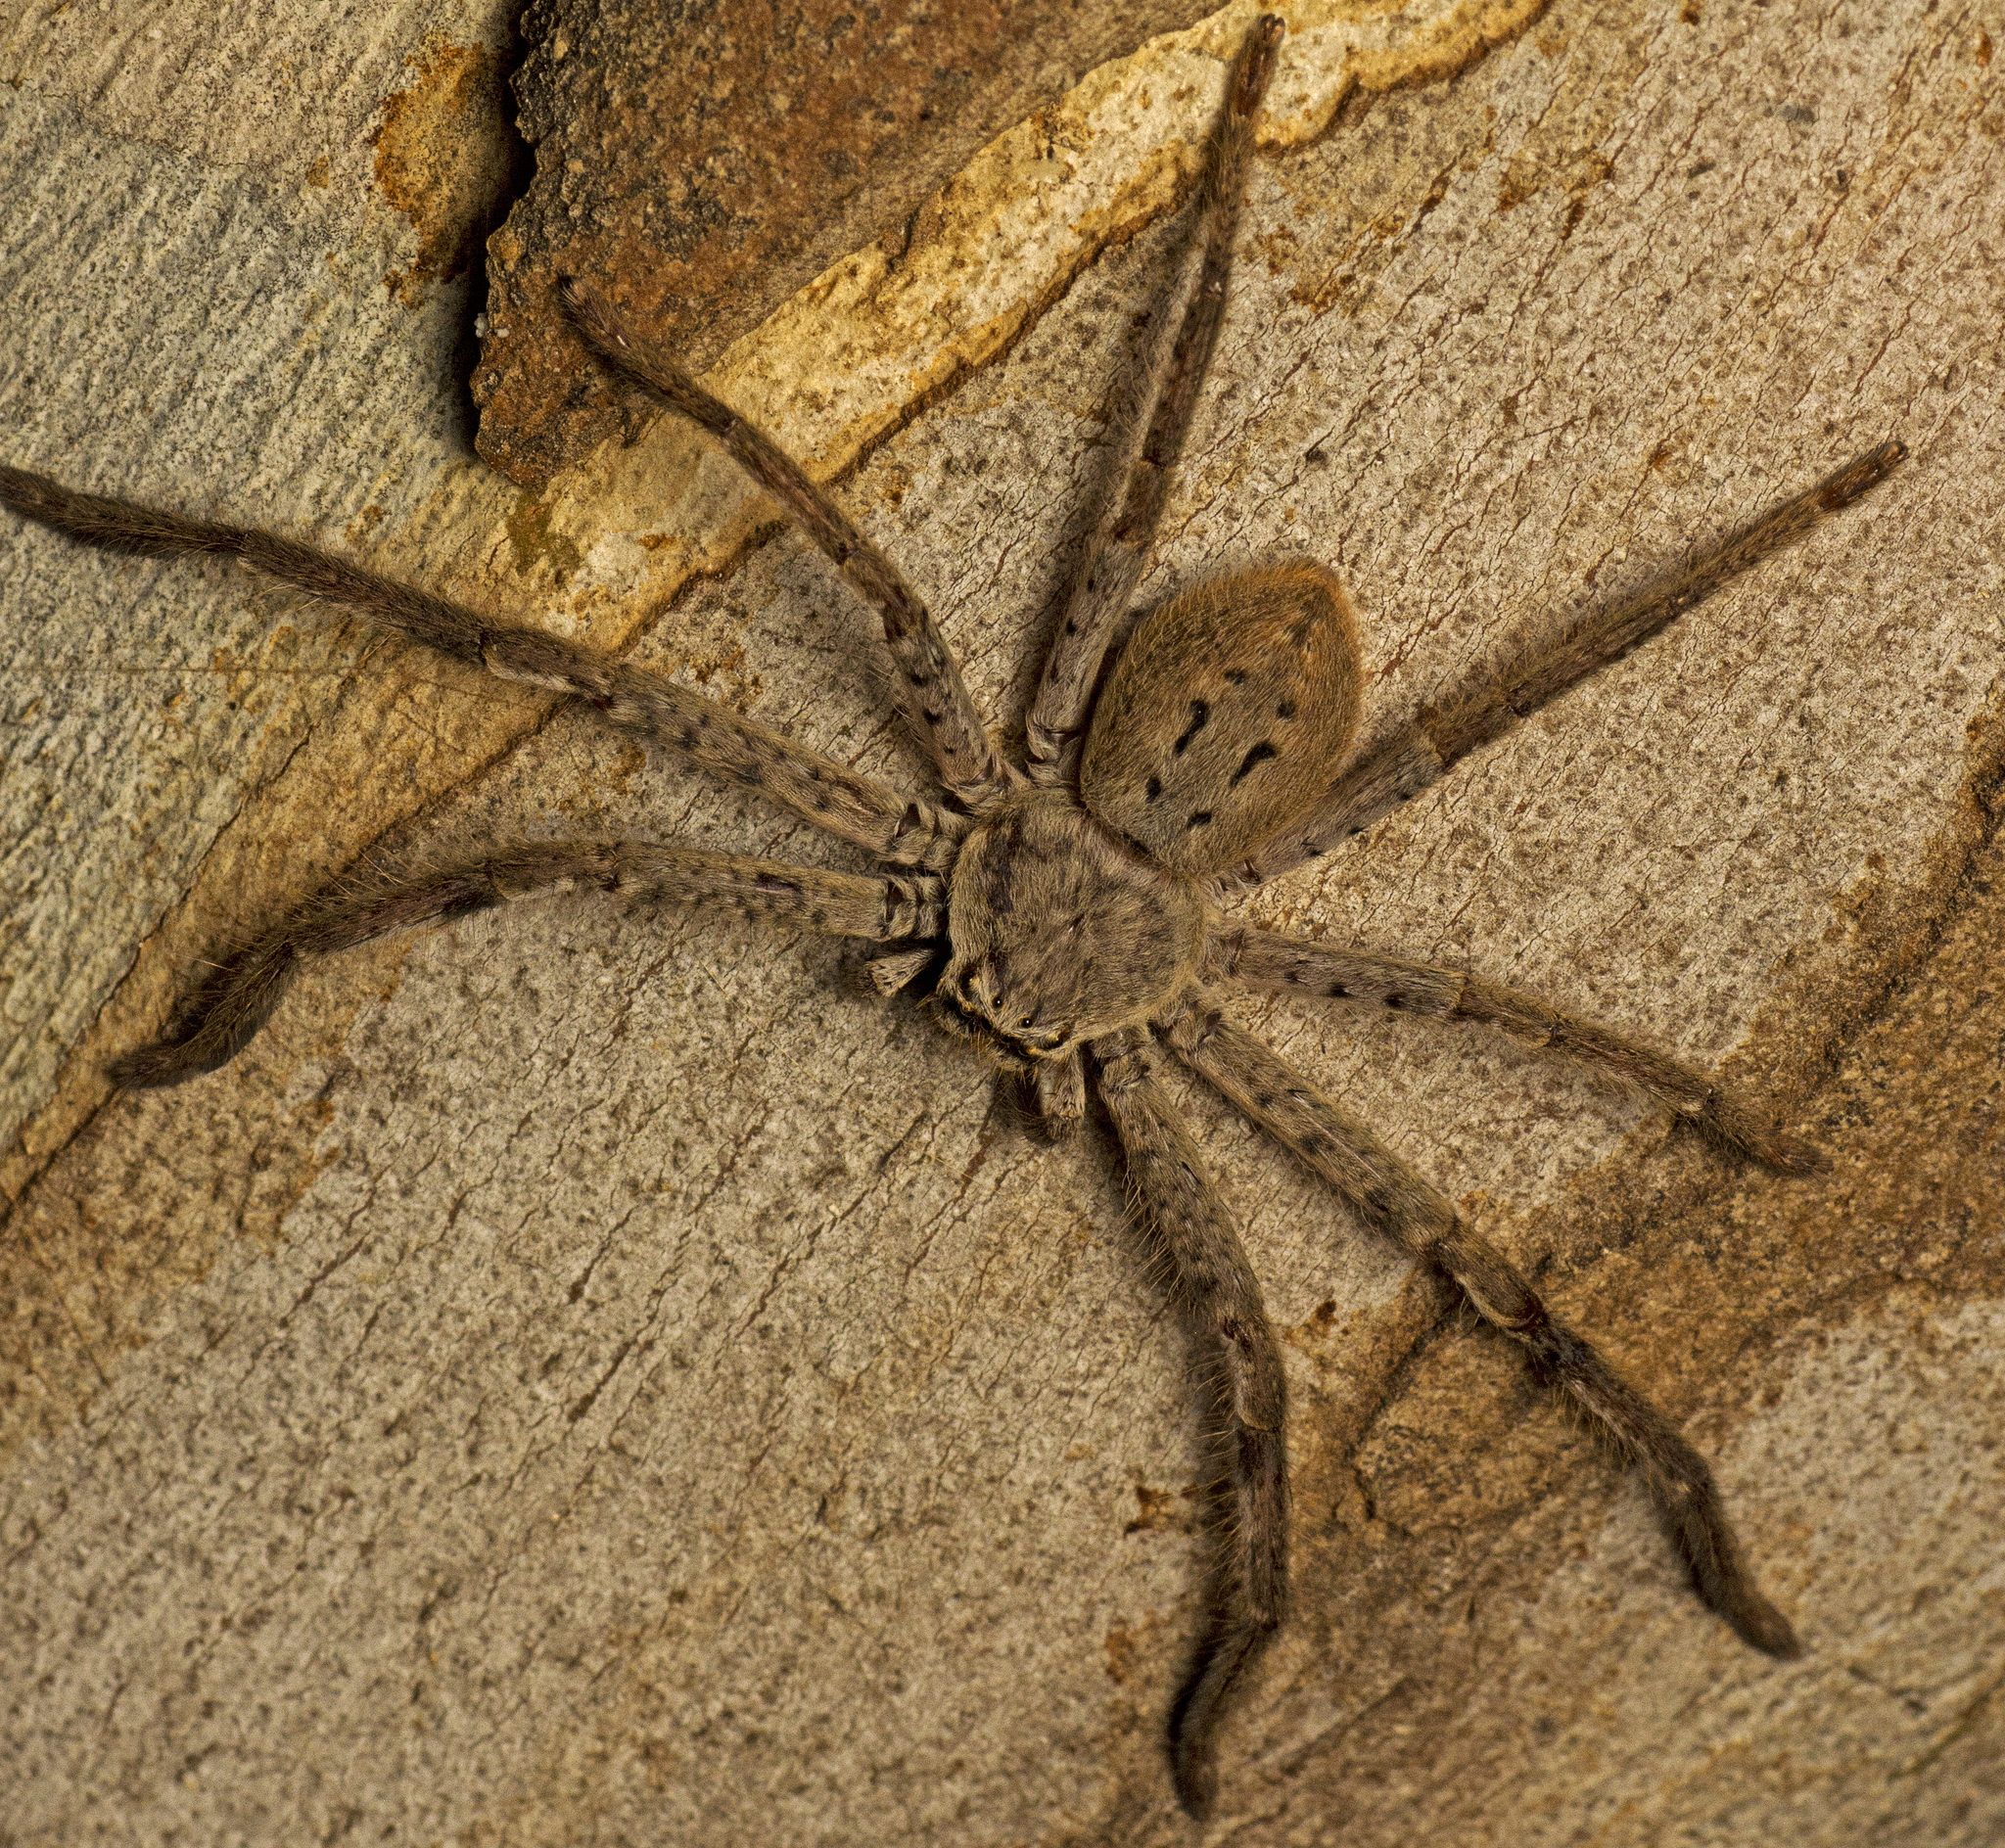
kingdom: Animalia
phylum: Arthropoda
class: Arachnida
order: Araneae
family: Sparassidae
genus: Isopeda
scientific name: Isopeda canberrana
